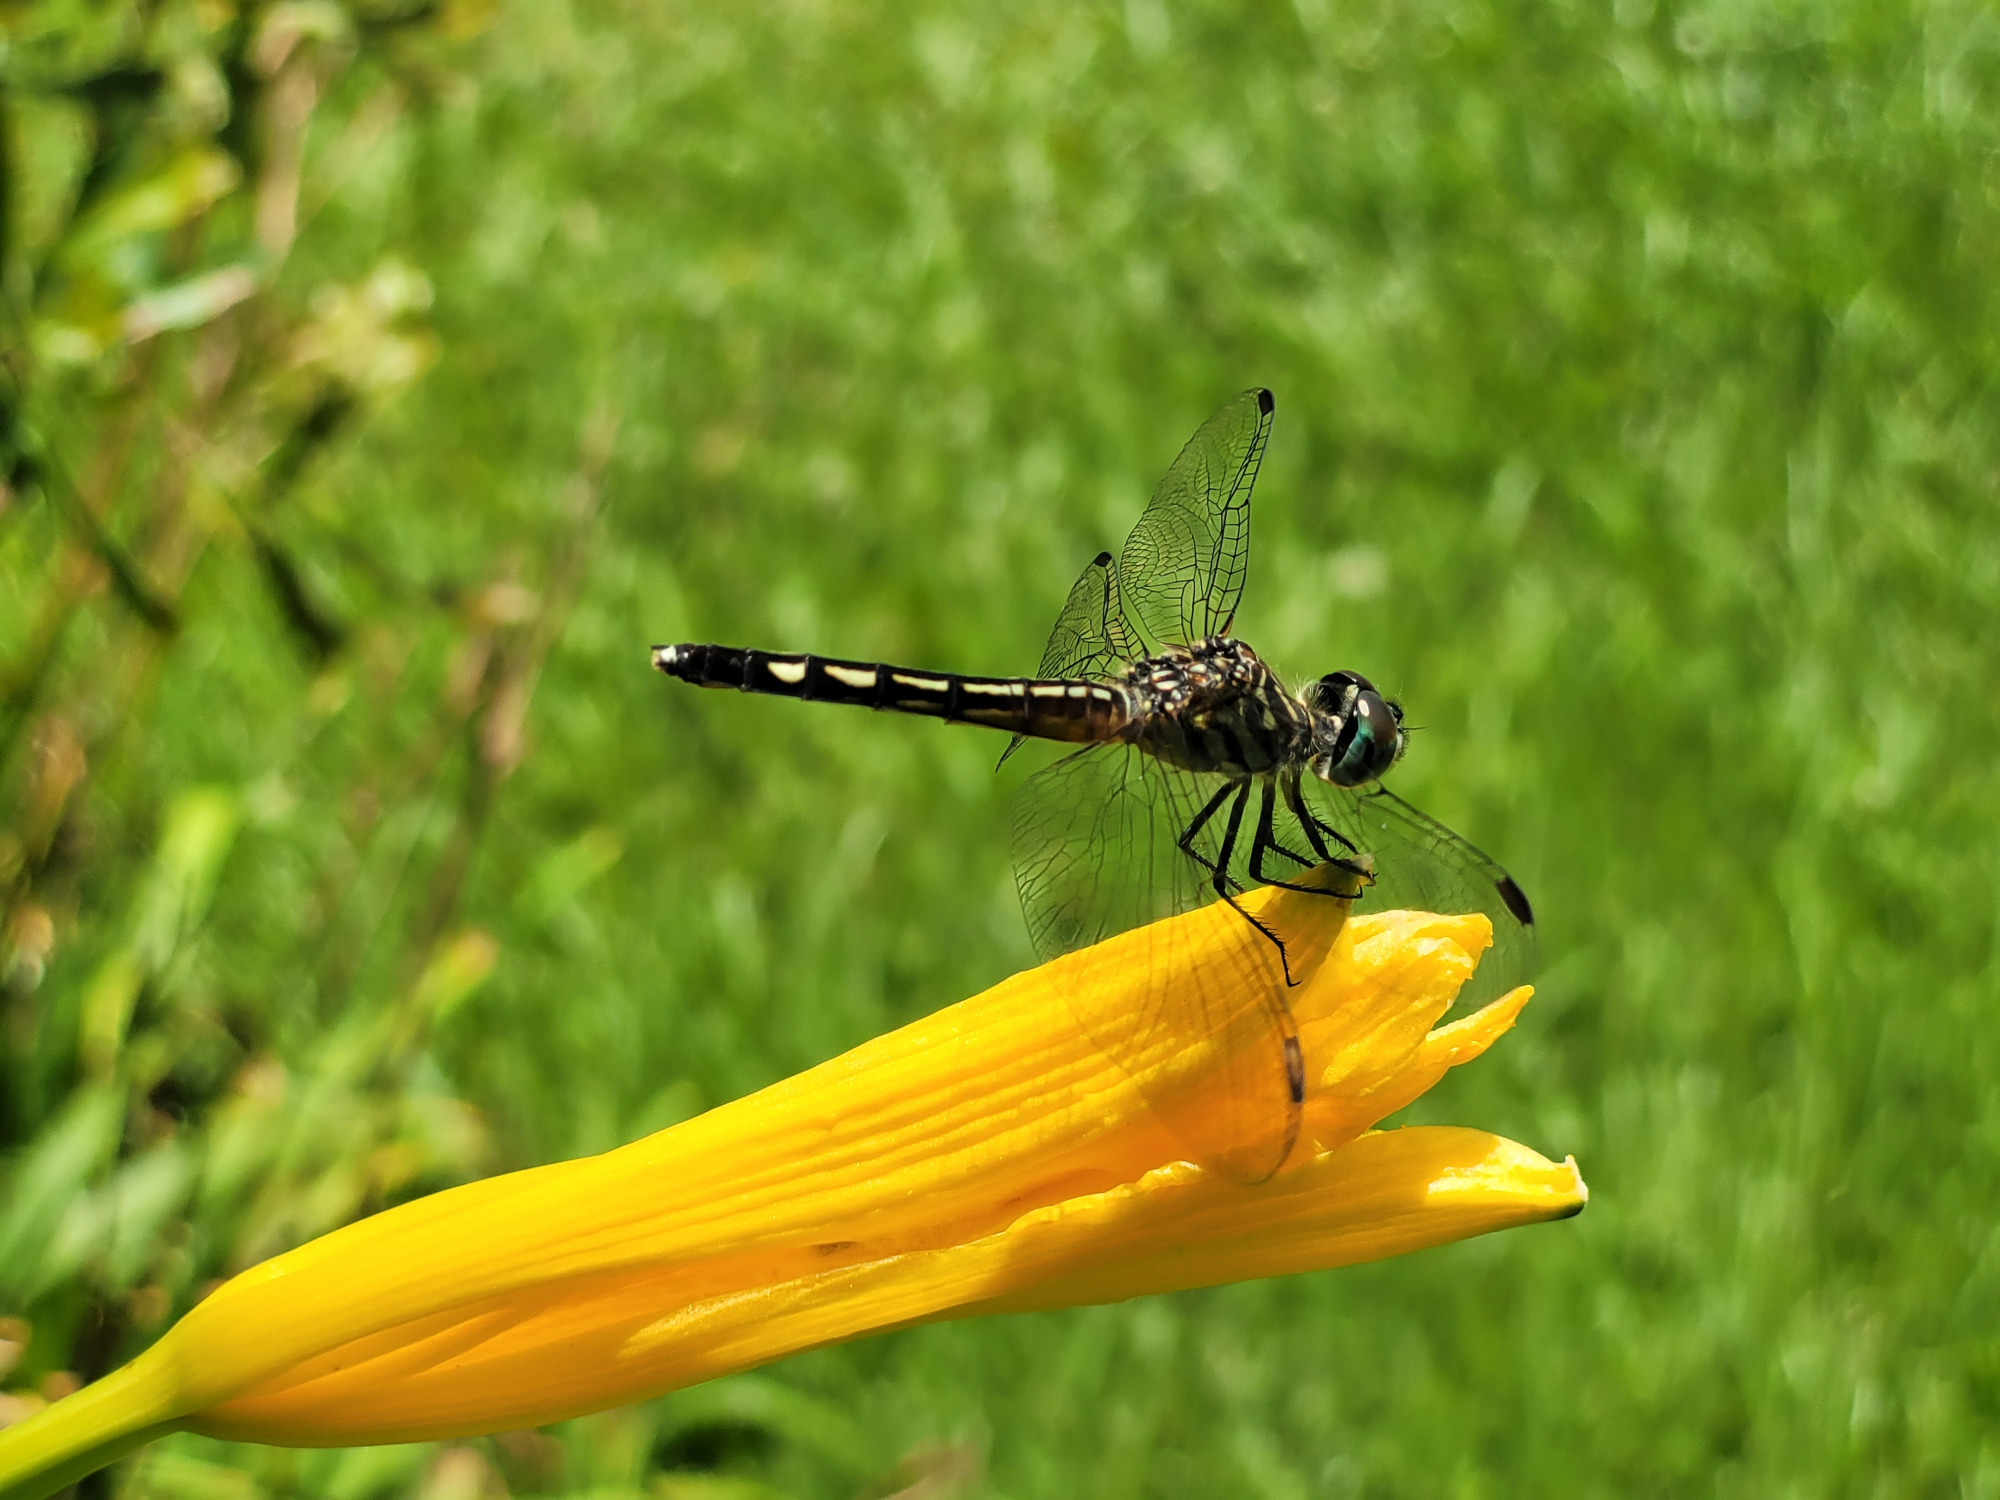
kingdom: Animalia
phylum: Arthropoda
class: Insecta
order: Odonata
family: Libellulidae
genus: Pachydiplax
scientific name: Pachydiplax longipennis
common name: Blue dasher
